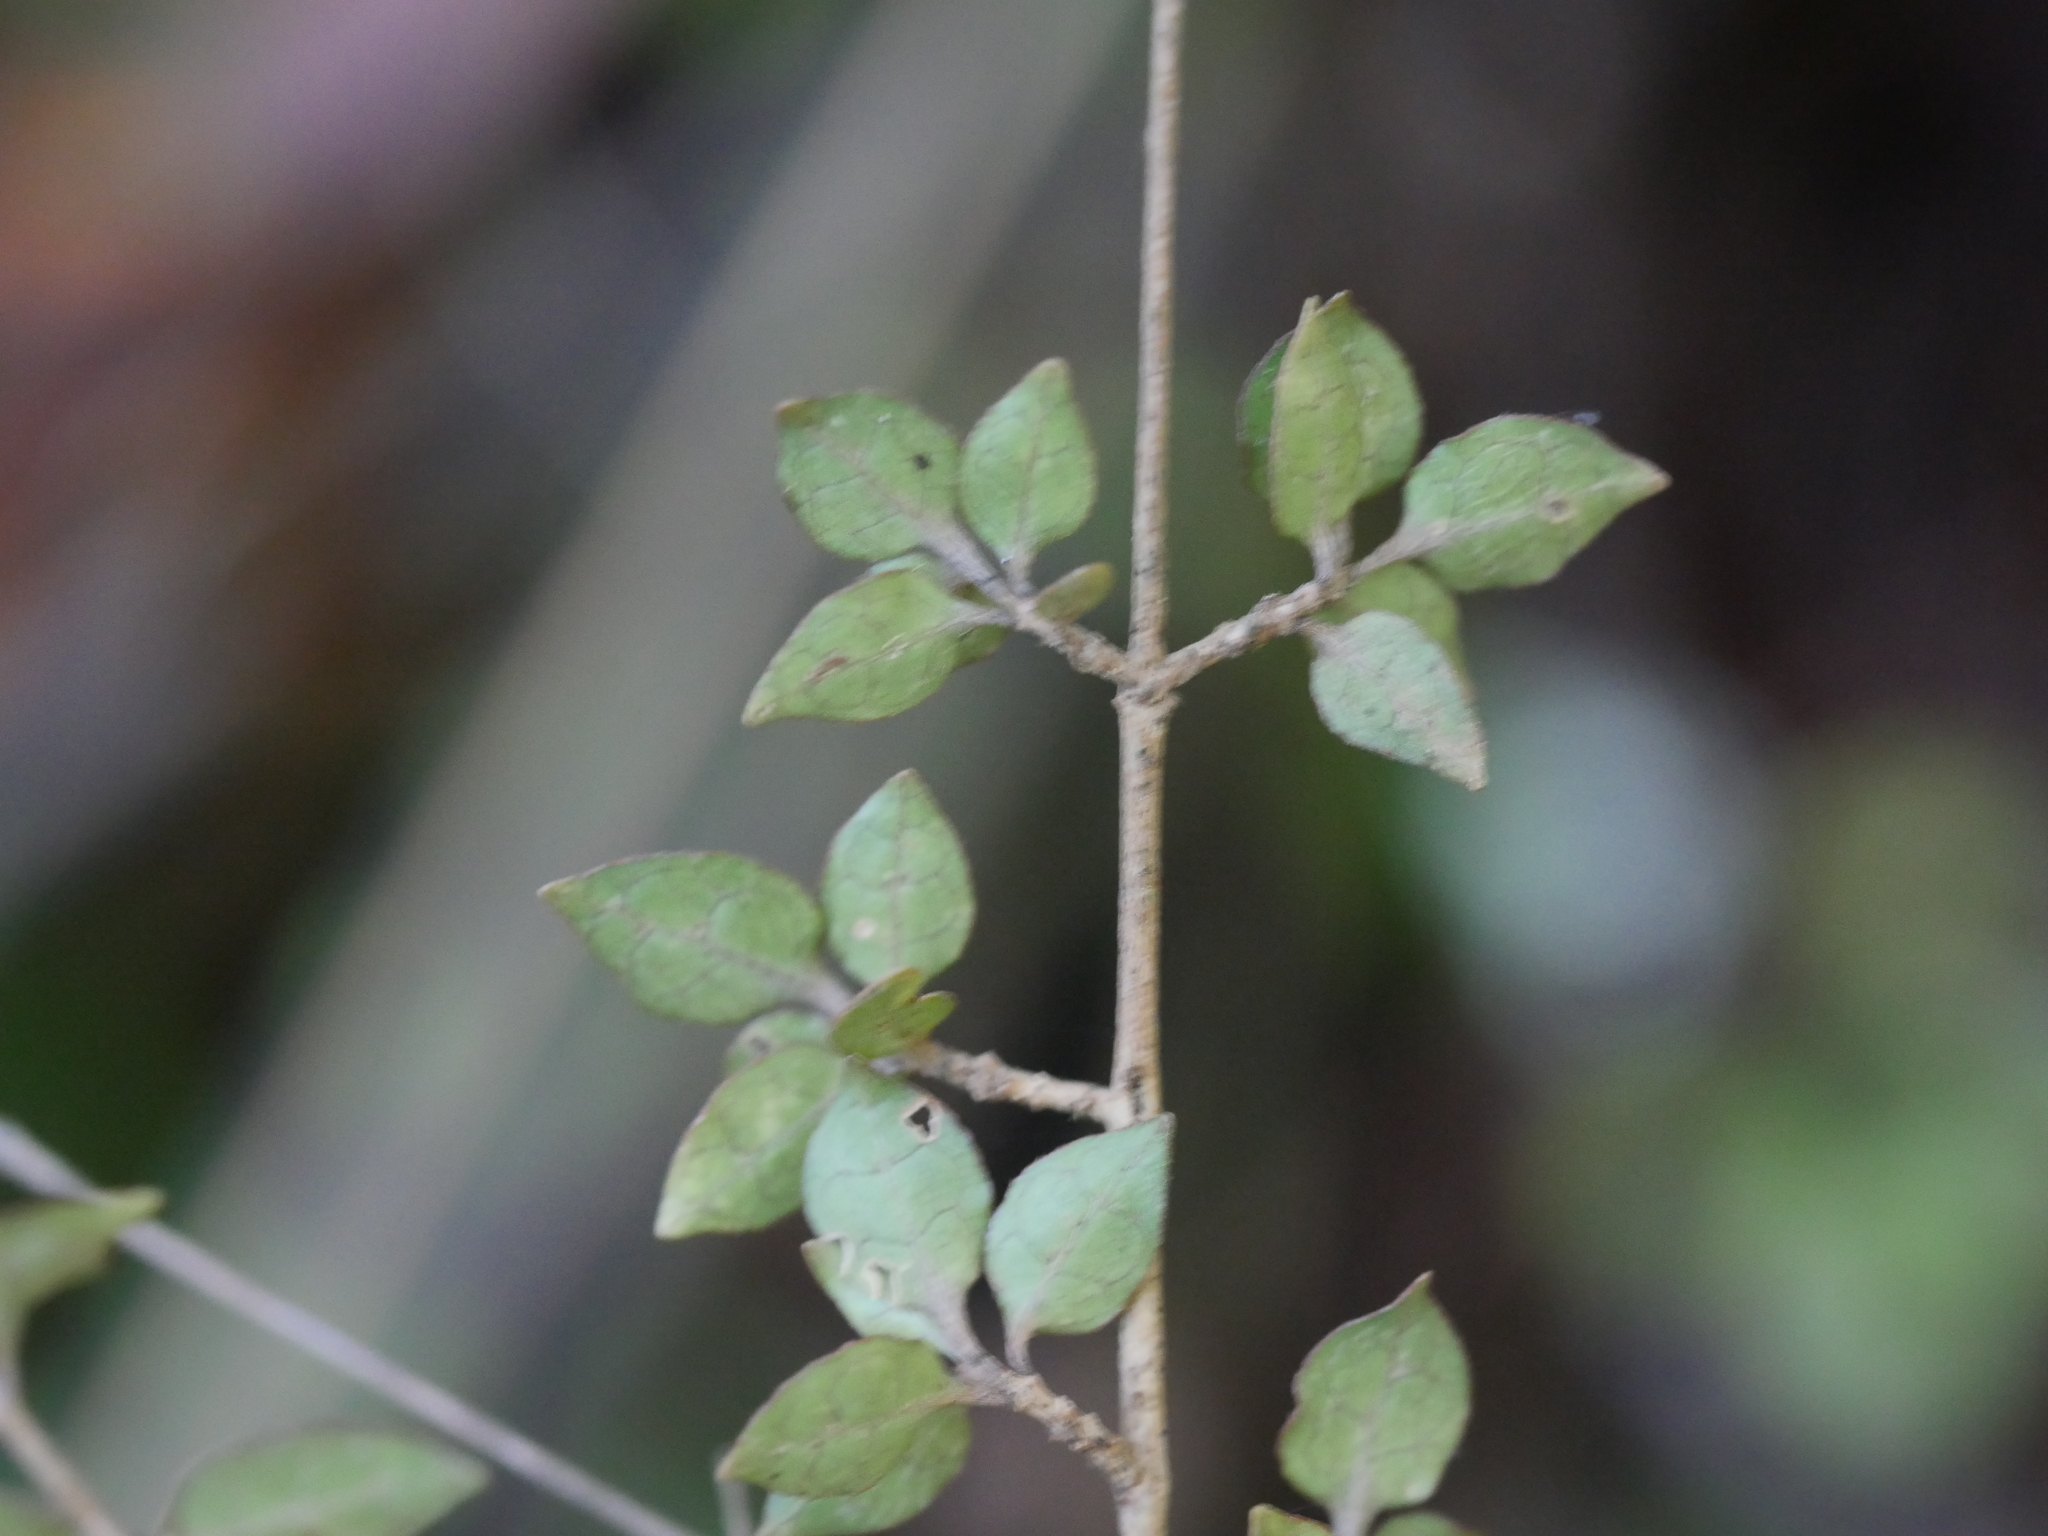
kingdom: Plantae
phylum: Tracheophyta
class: Magnoliopsida
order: Gentianales
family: Rubiaceae
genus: Coprosma
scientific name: Coprosma areolata
